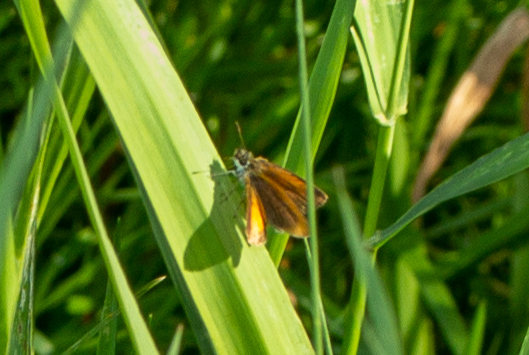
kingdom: Animalia
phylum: Arthropoda
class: Insecta
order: Lepidoptera
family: Hesperiidae
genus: Ancyloxypha
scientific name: Ancyloxypha numitor
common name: Least skipper
